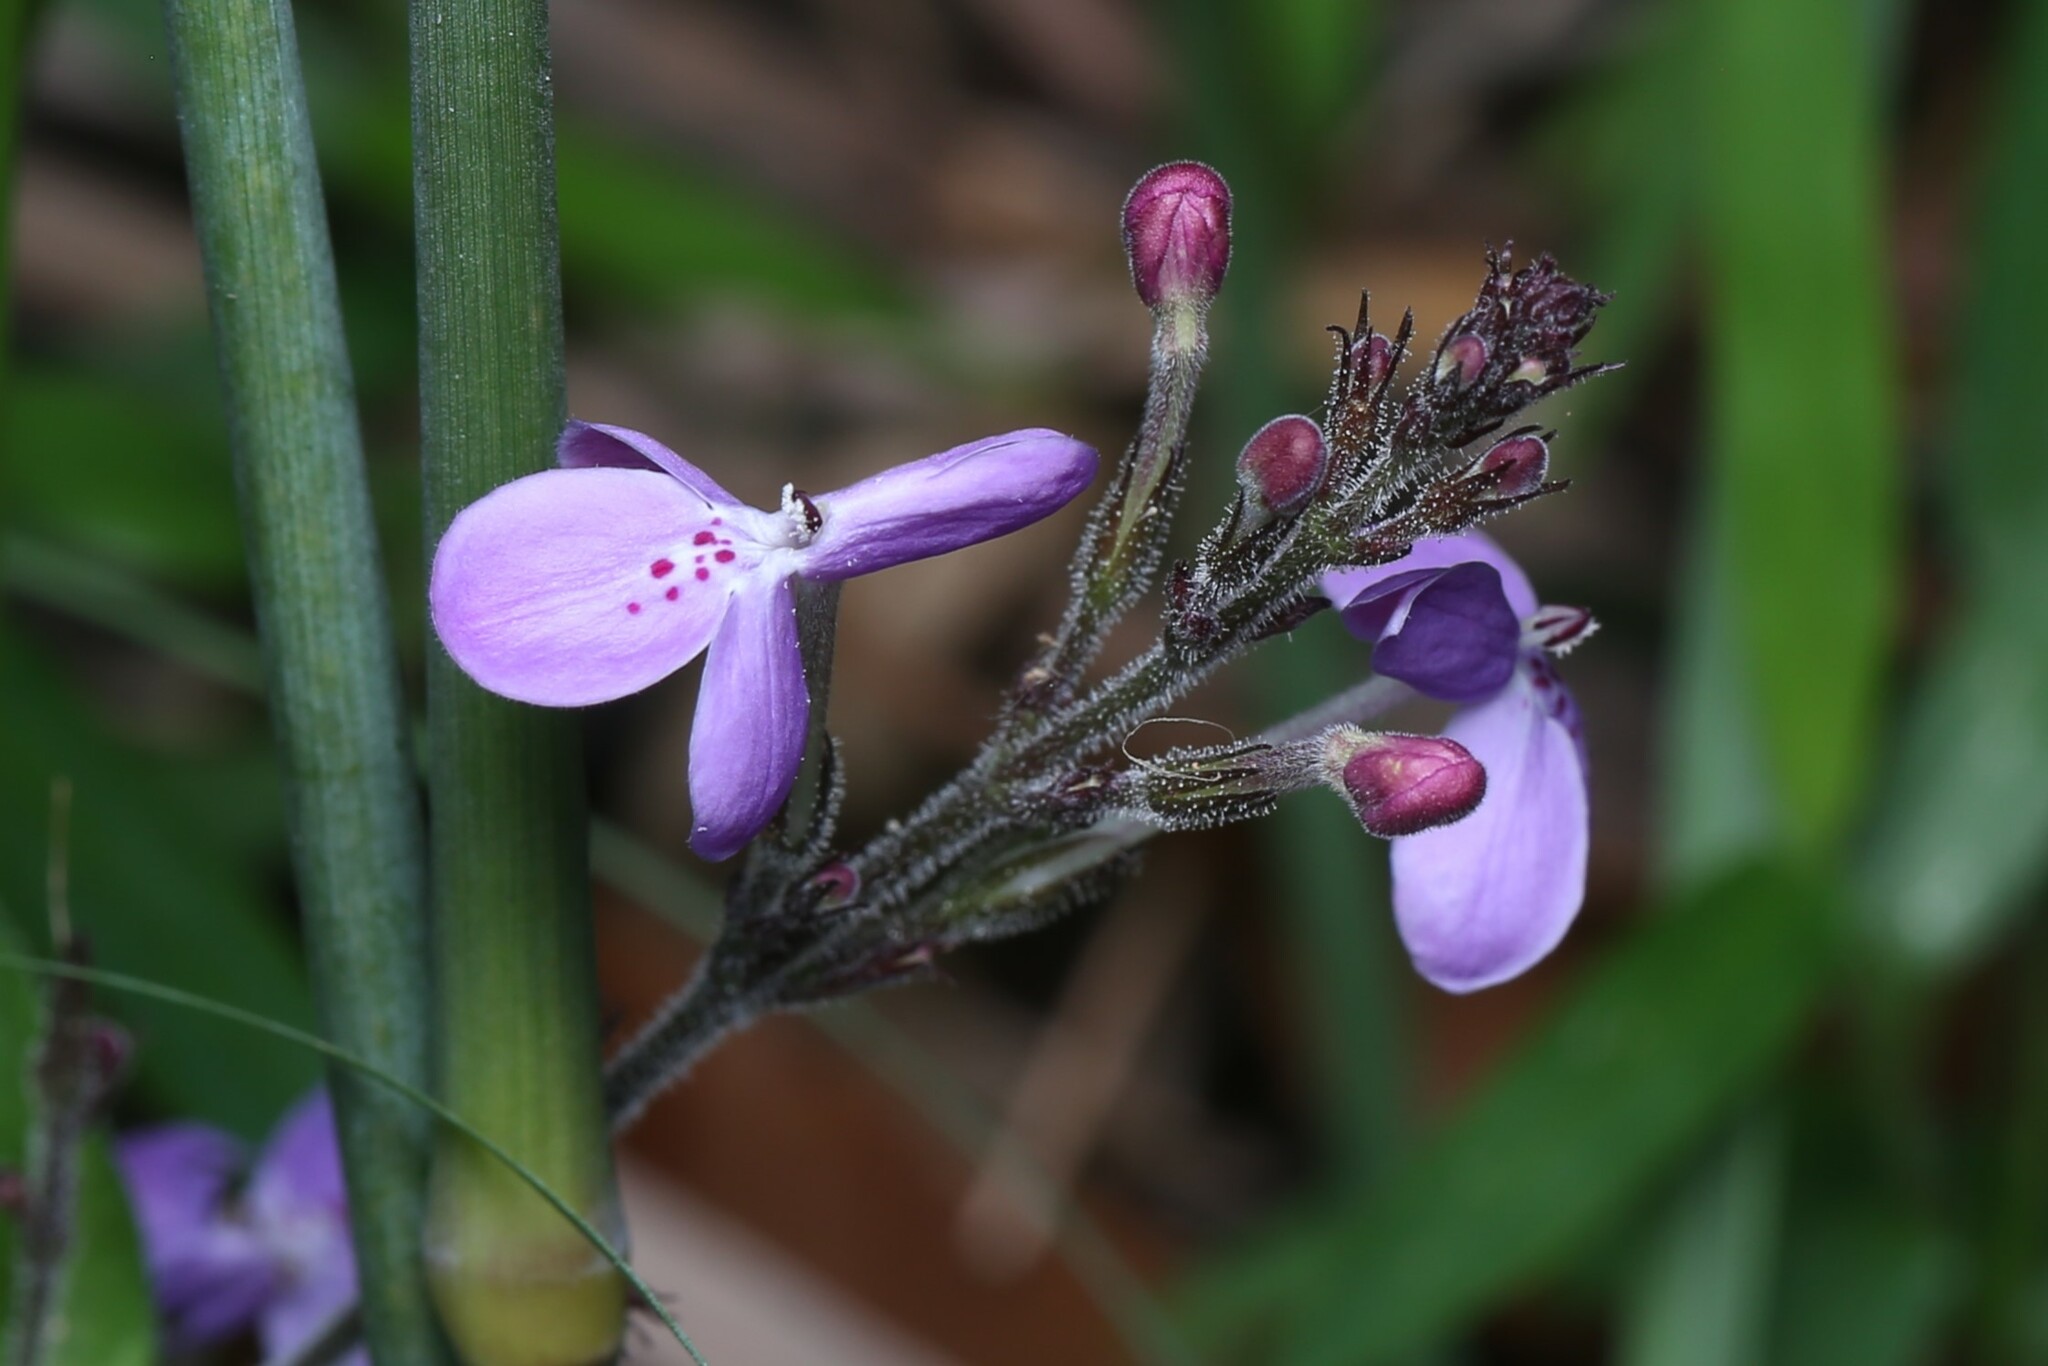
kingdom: Plantae
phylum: Tracheophyta
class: Magnoliopsida
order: Lamiales
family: Acanthaceae
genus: Pseuderanthemum
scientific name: Pseuderanthemum variabile
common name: Night and afternoon
